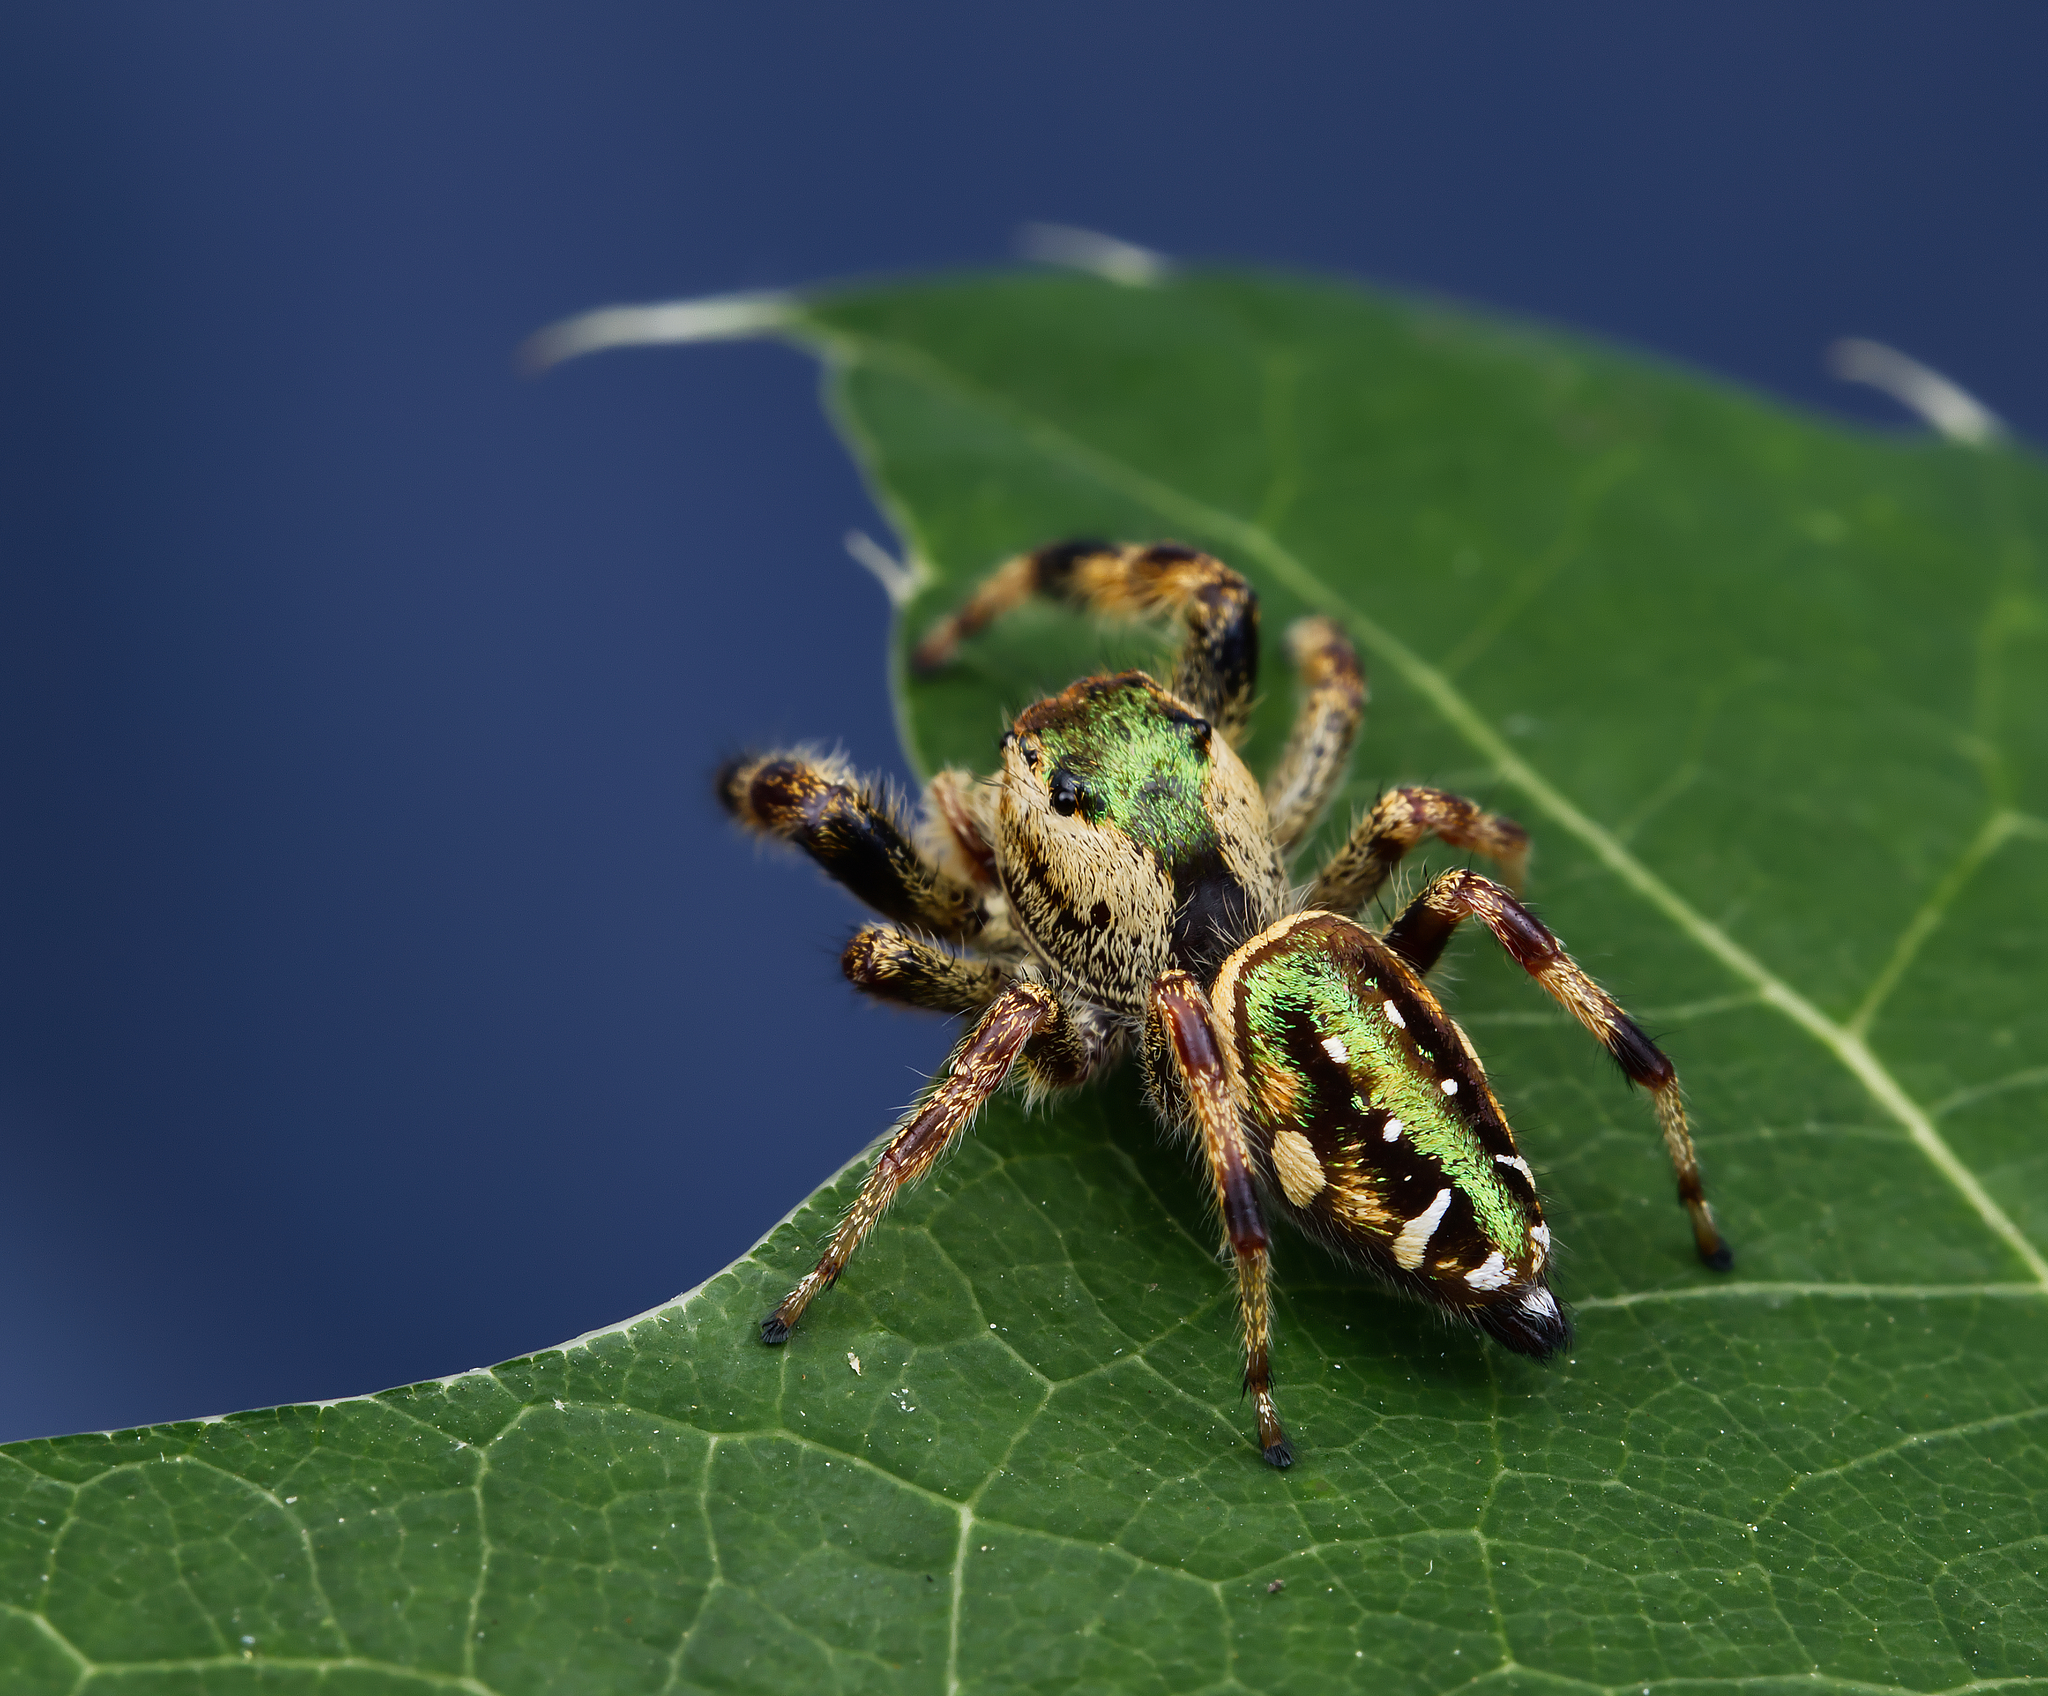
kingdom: Animalia
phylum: Arthropoda
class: Arachnida
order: Araneae
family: Salticidae
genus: Paraphidippus
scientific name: Paraphidippus aurantius
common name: Jumping spiders
